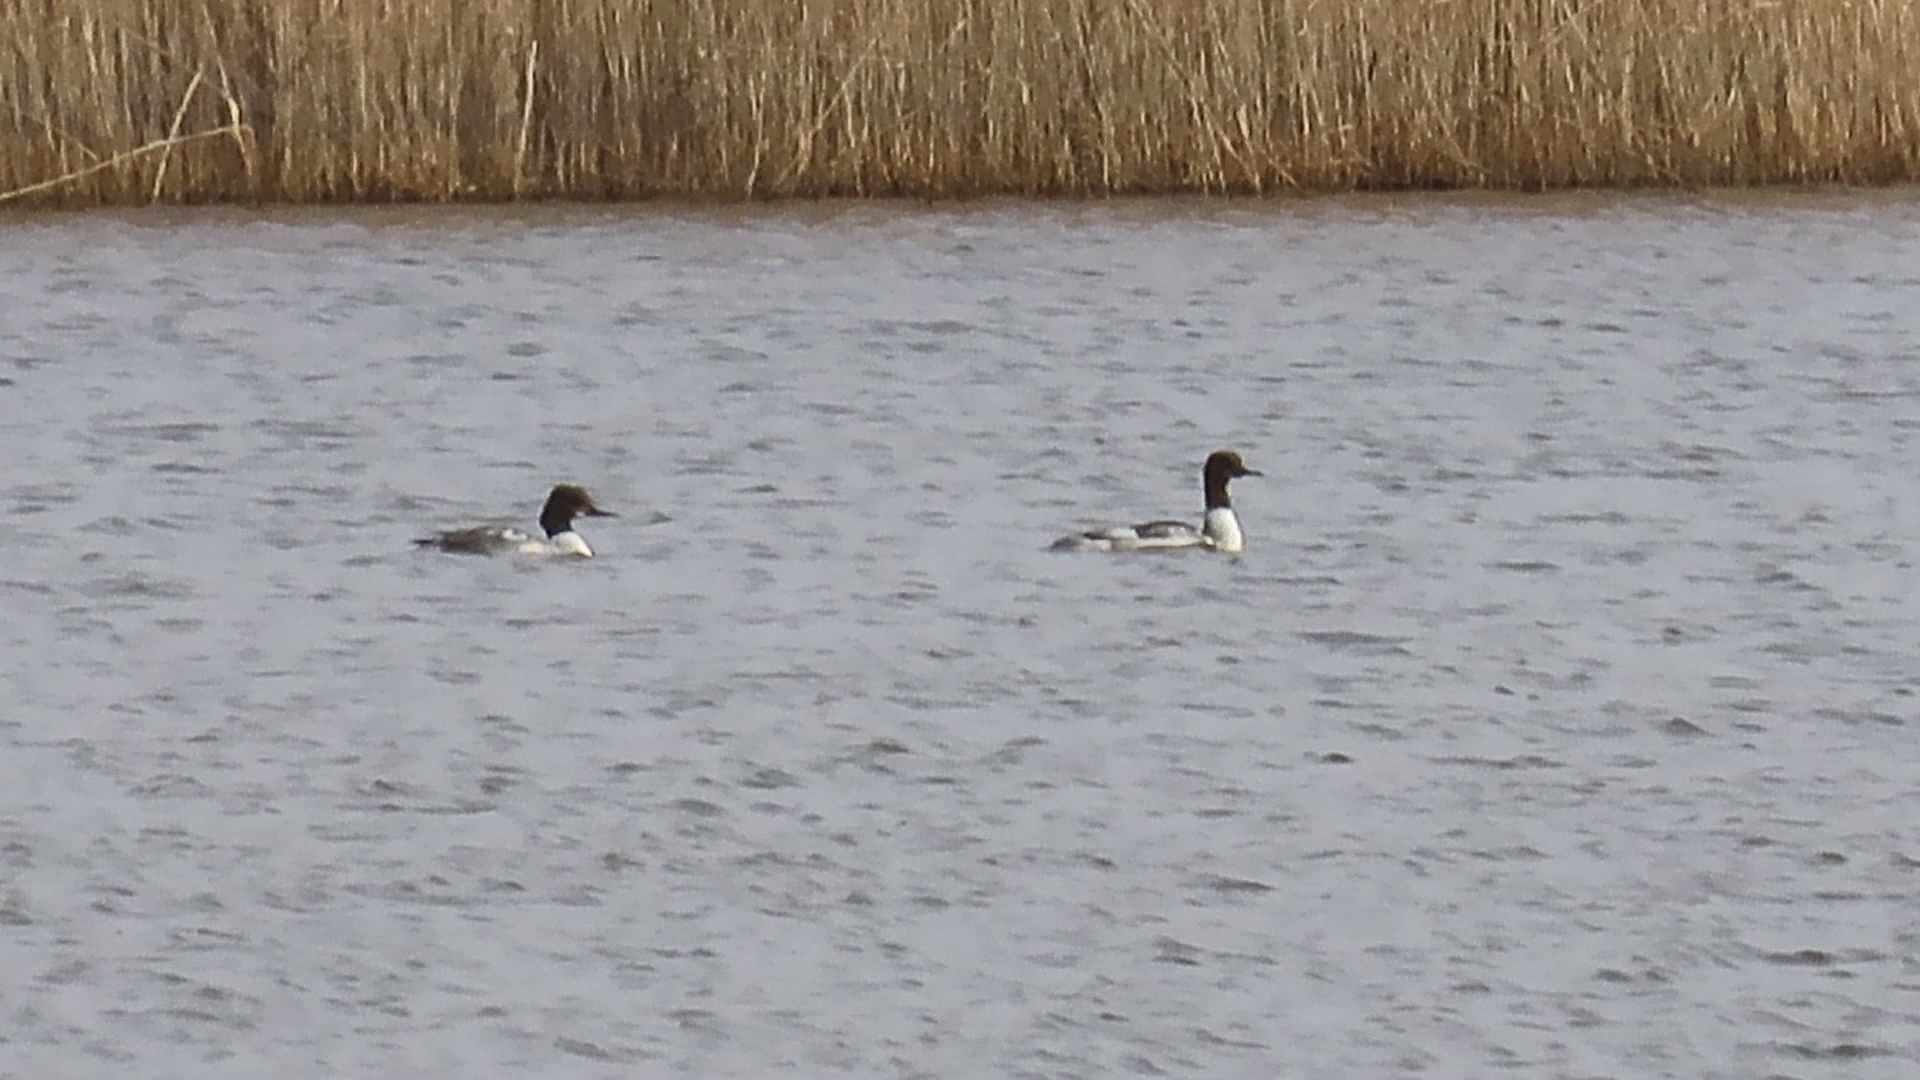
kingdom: Animalia
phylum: Chordata
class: Aves
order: Anseriformes
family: Anatidae
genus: Mergus
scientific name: Mergus merganser
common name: Common merganser
